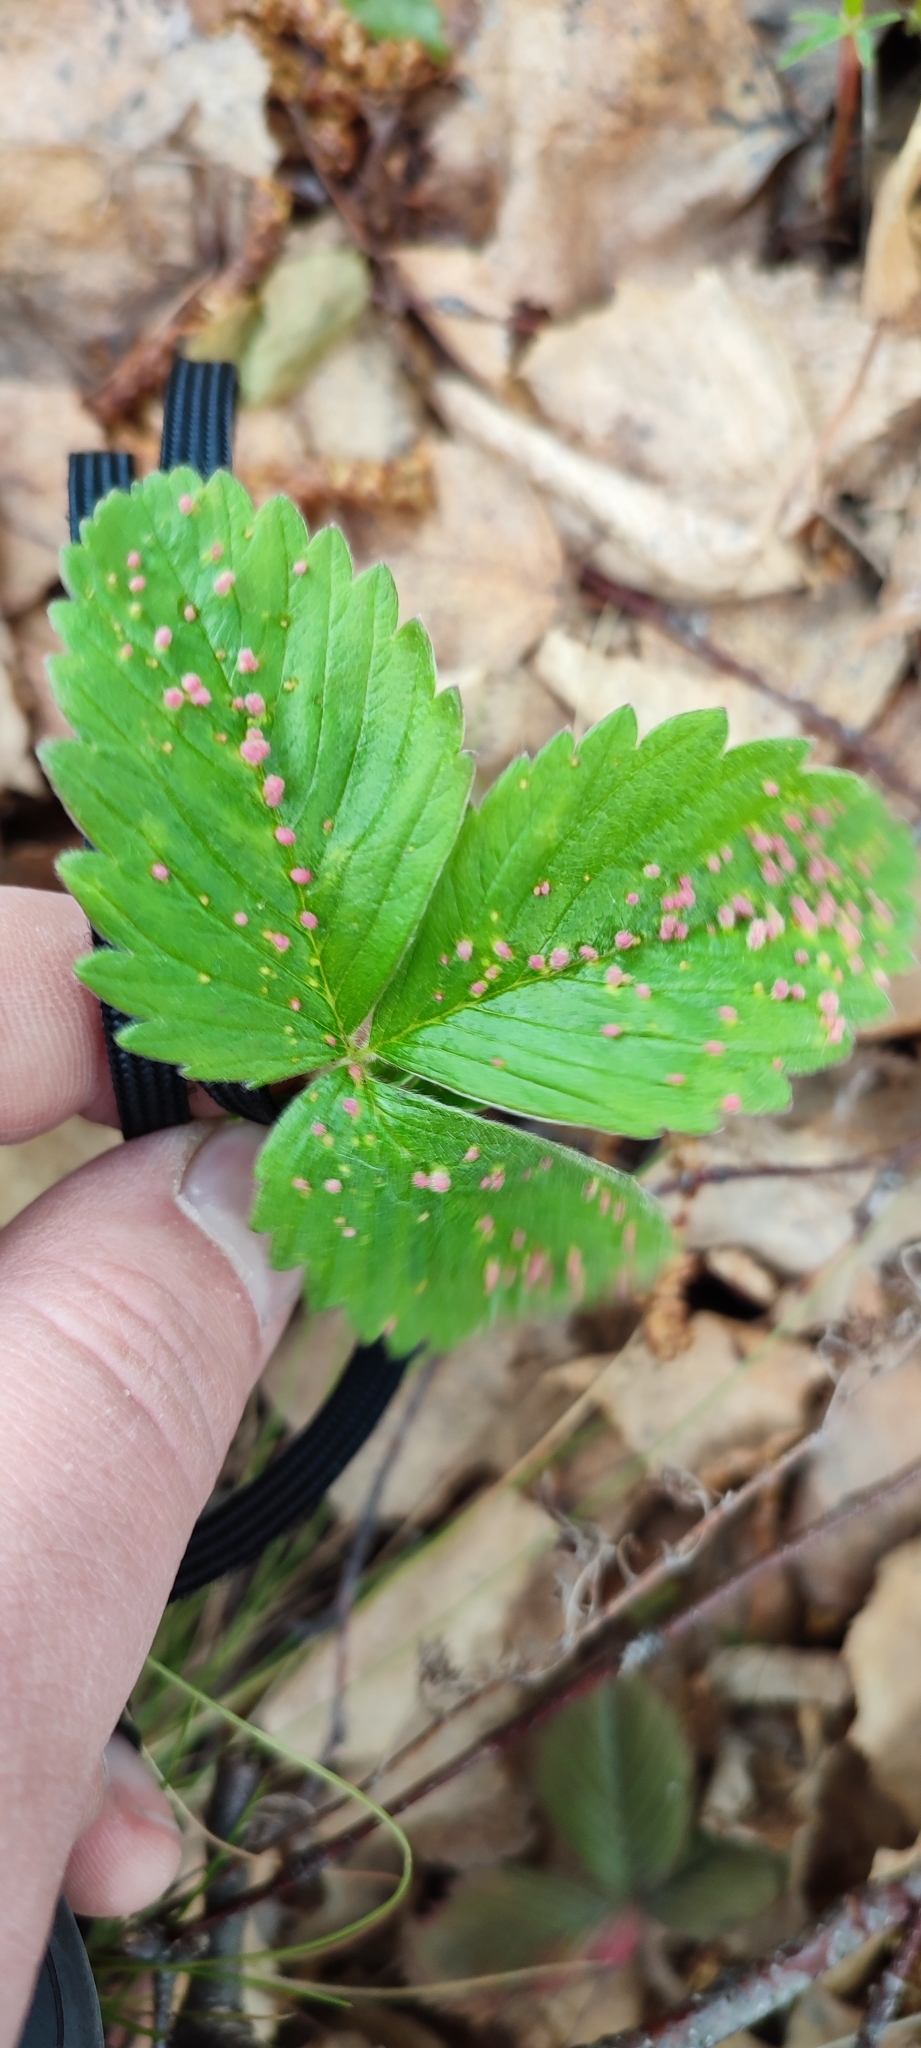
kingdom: Animalia
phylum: Arthropoda
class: Arachnida
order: Trombidiformes
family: Phytoptidae
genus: Fragariocoptes
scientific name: Fragariocoptes setiger
